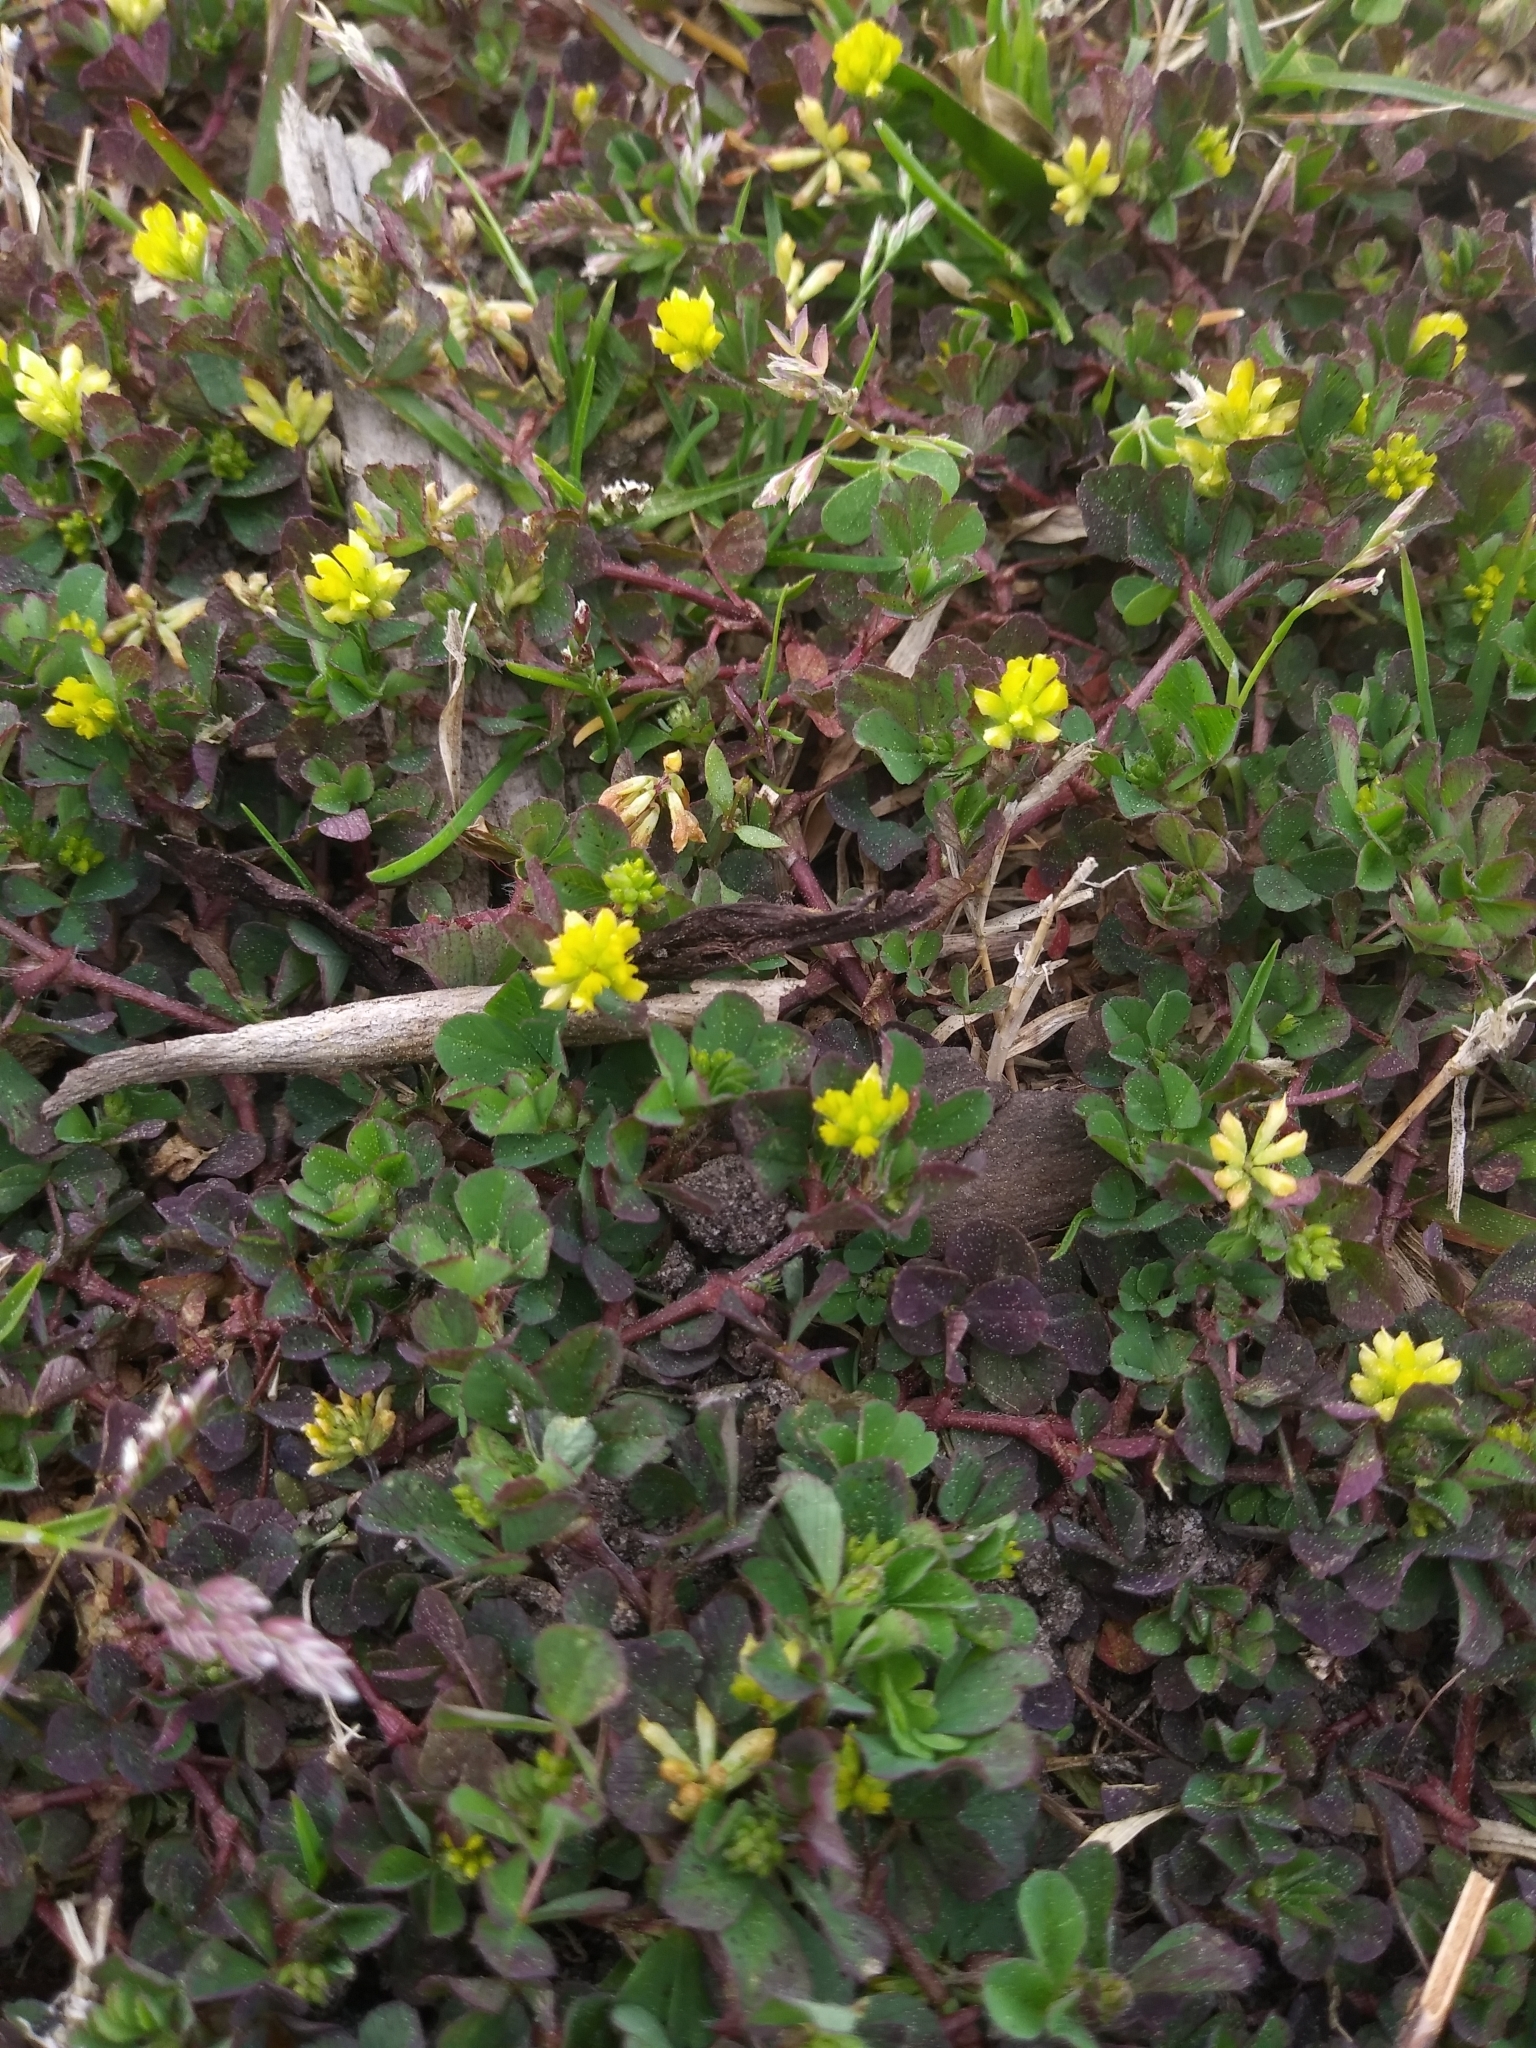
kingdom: Plantae
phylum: Tracheophyta
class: Magnoliopsida
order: Fabales
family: Fabaceae
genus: Trifolium
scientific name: Trifolium dubium
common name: Suckling clover
